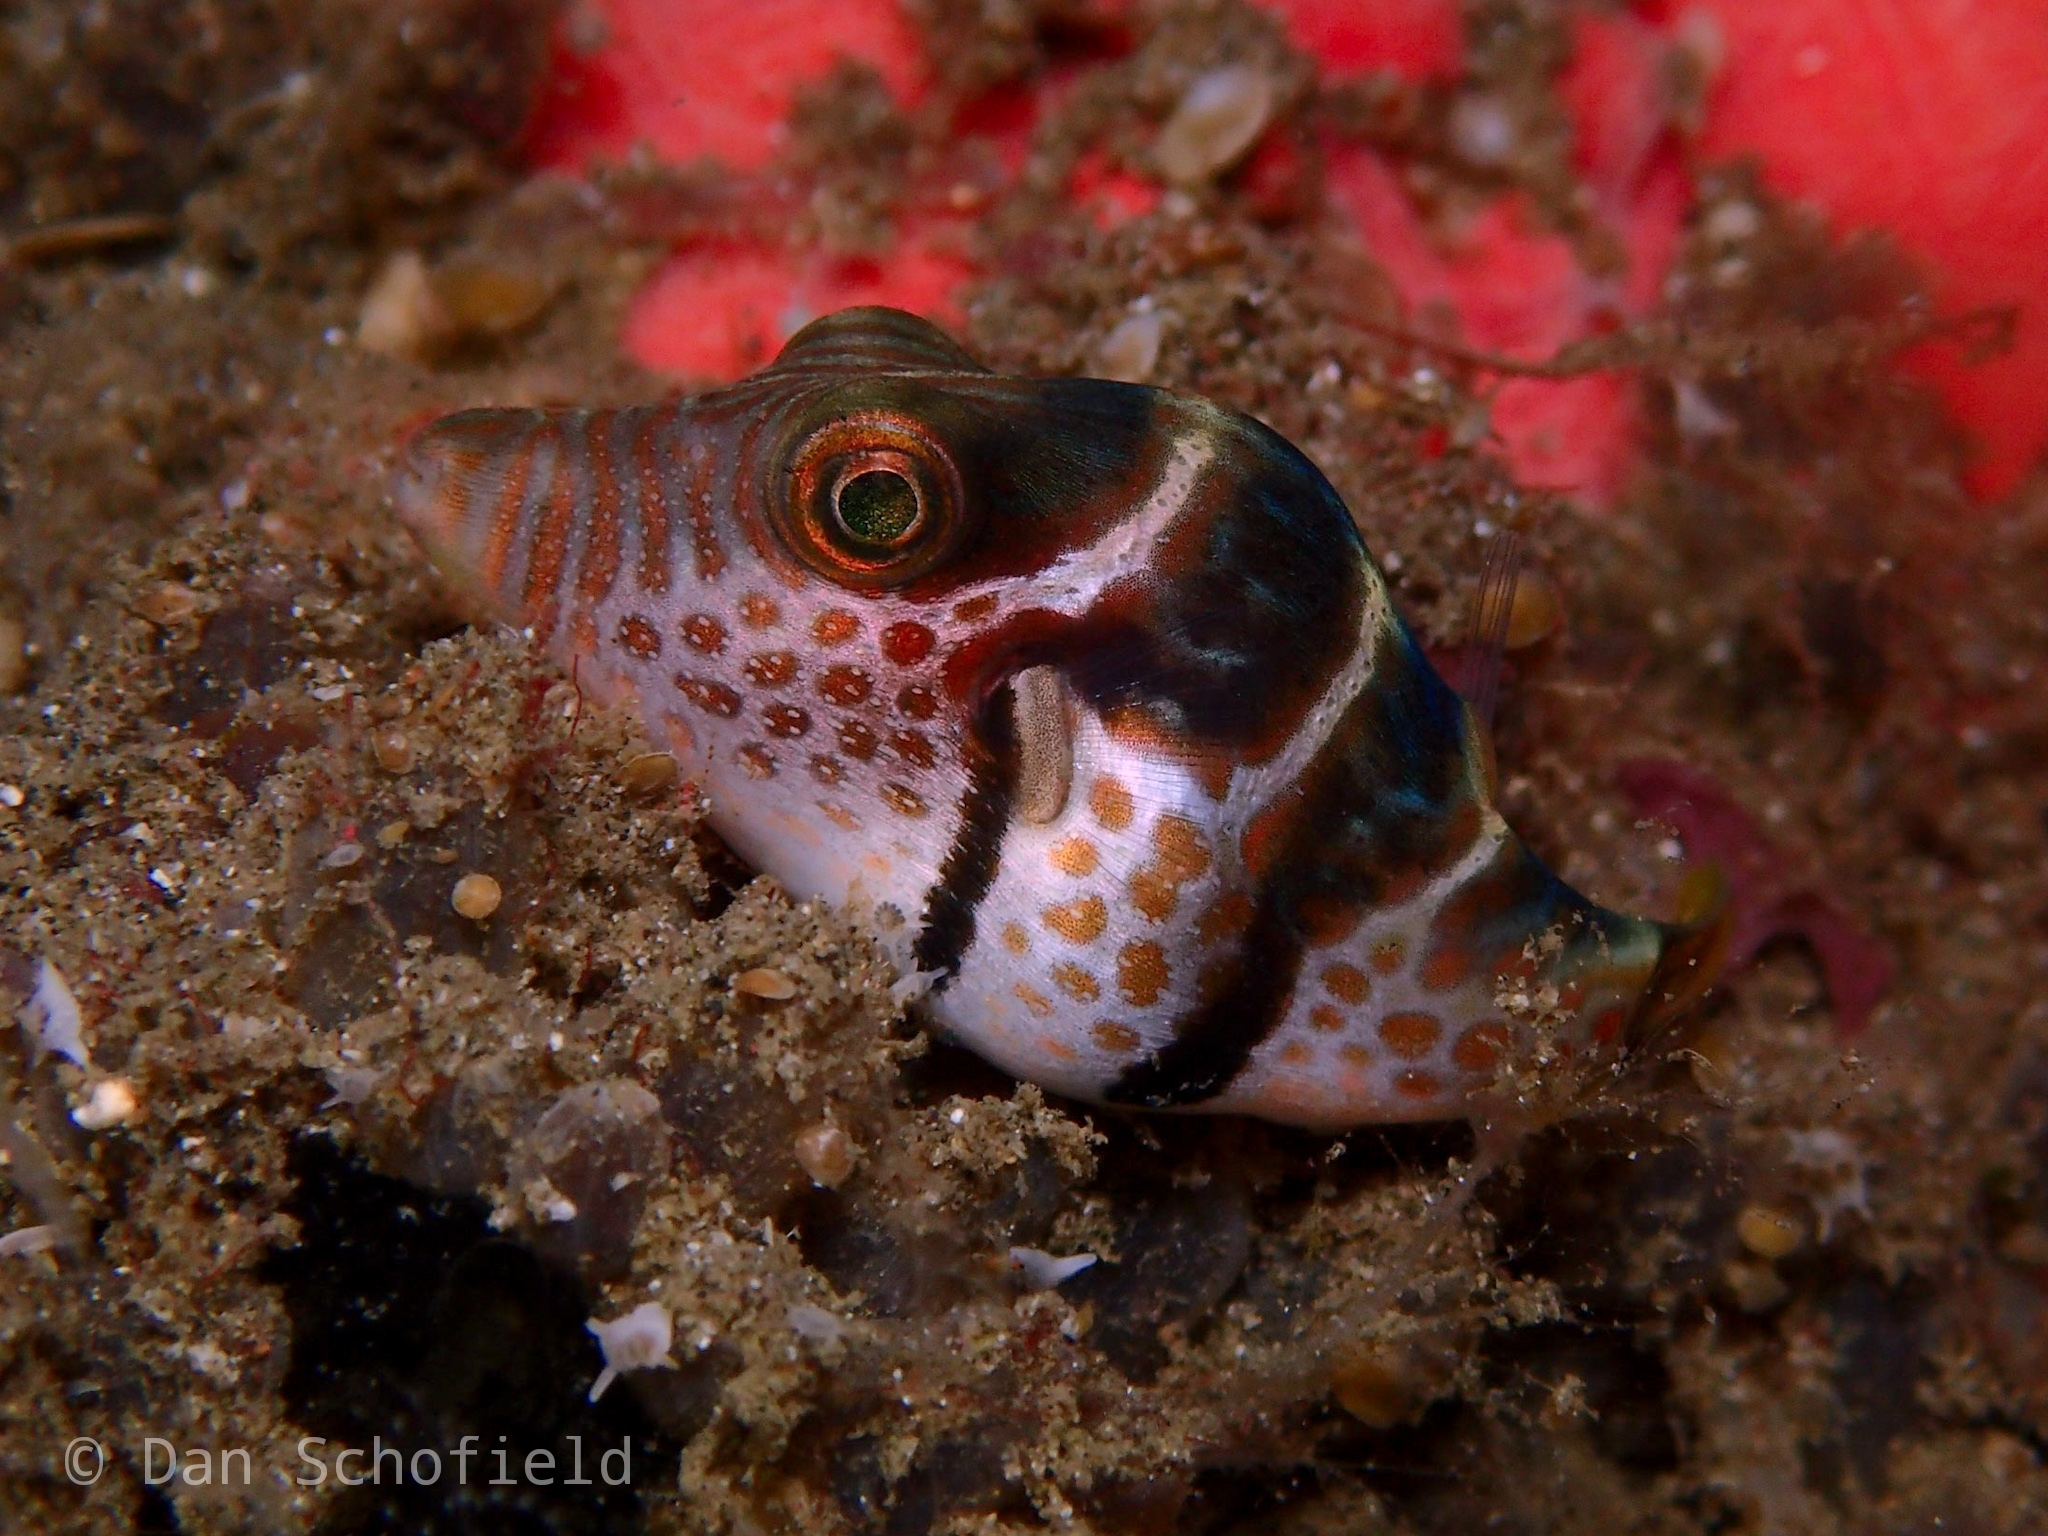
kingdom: Animalia
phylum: Chordata
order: Tetraodontiformes
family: Tetraodontidae
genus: Canthigaster
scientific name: Canthigaster valentini
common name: Banded toby
